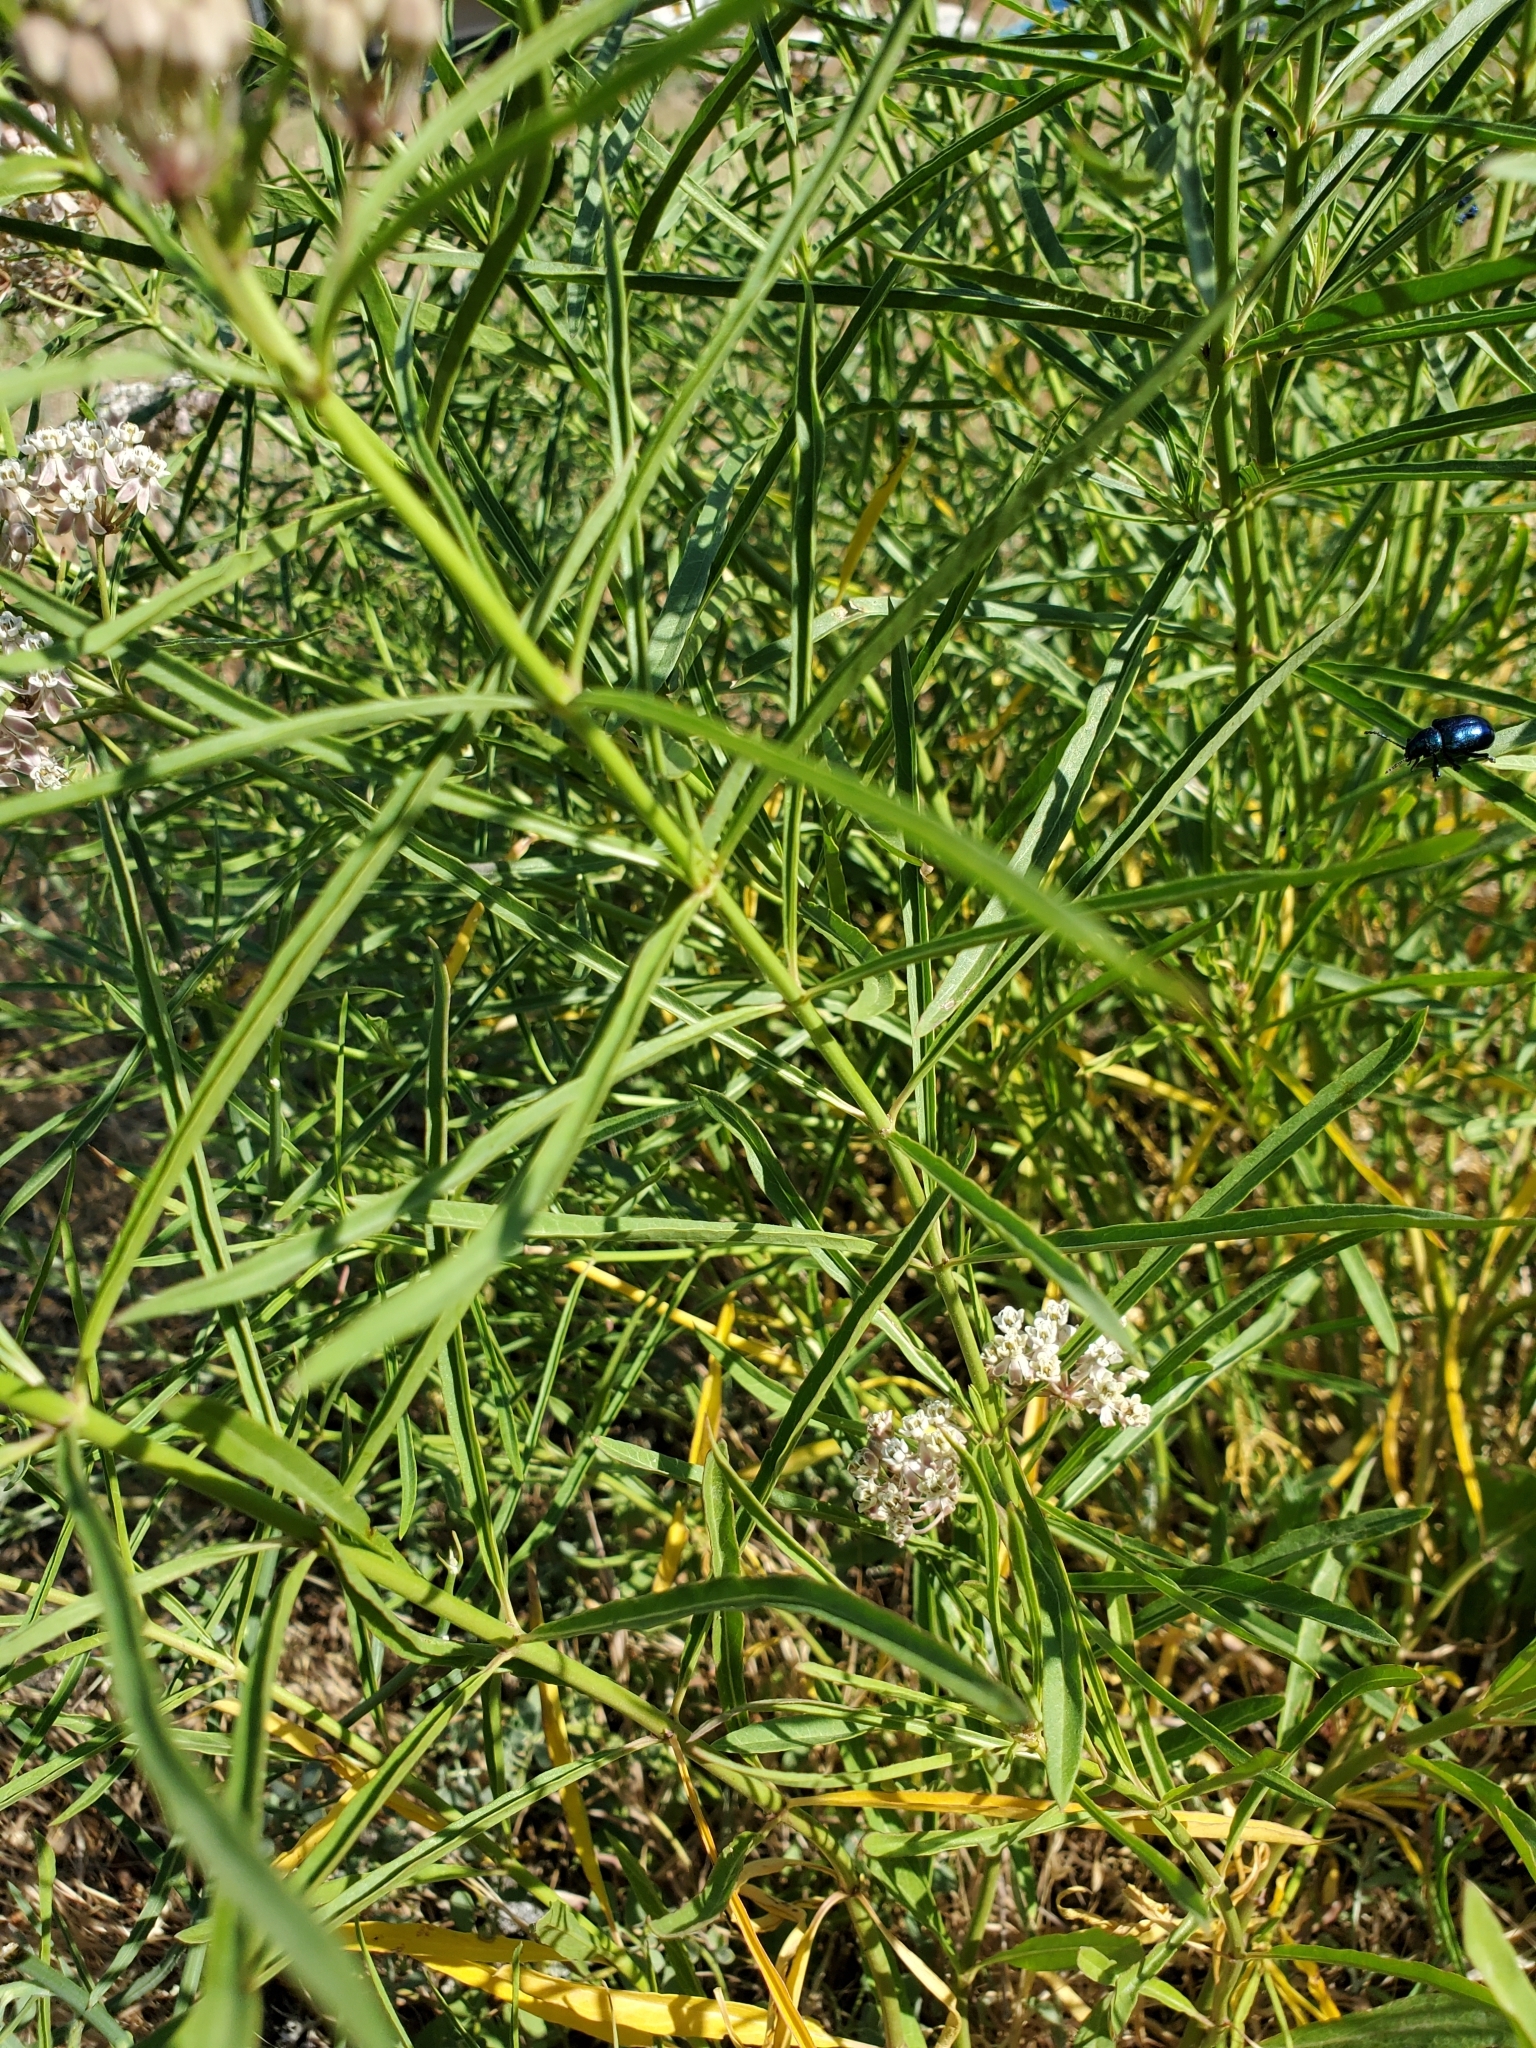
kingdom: Plantae
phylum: Tracheophyta
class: Magnoliopsida
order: Gentianales
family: Apocynaceae
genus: Asclepias
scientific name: Asclepias fascicularis
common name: Mexican milkweed
